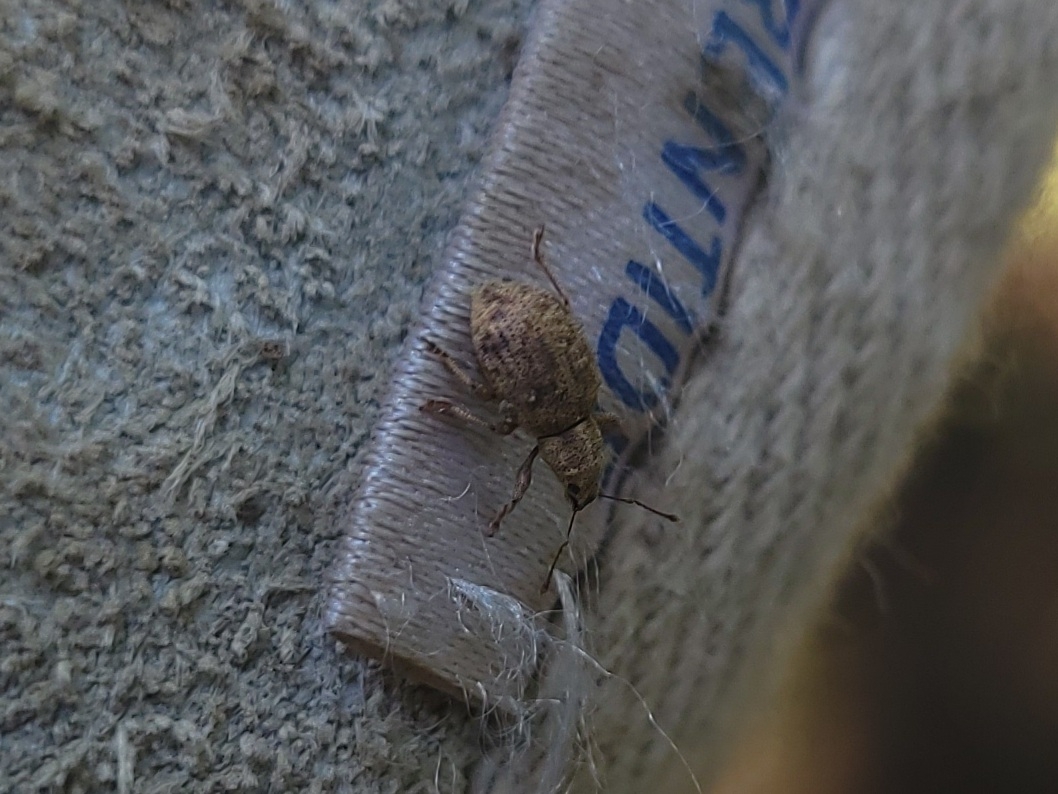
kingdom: Animalia
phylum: Arthropoda
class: Insecta
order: Coleoptera
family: Curculionidae
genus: Sciaphilus
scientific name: Sciaphilus asperatus
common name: Weevil
